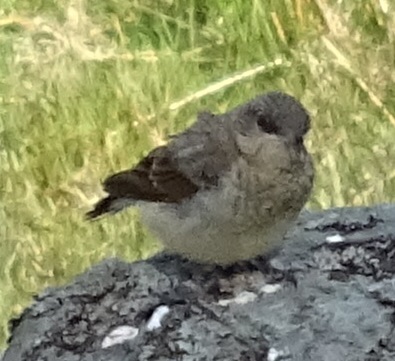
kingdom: Animalia
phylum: Chordata
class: Aves
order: Passeriformes
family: Muscicapidae
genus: Oenanthe
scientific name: Oenanthe oenanthe
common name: Northern wheatear
